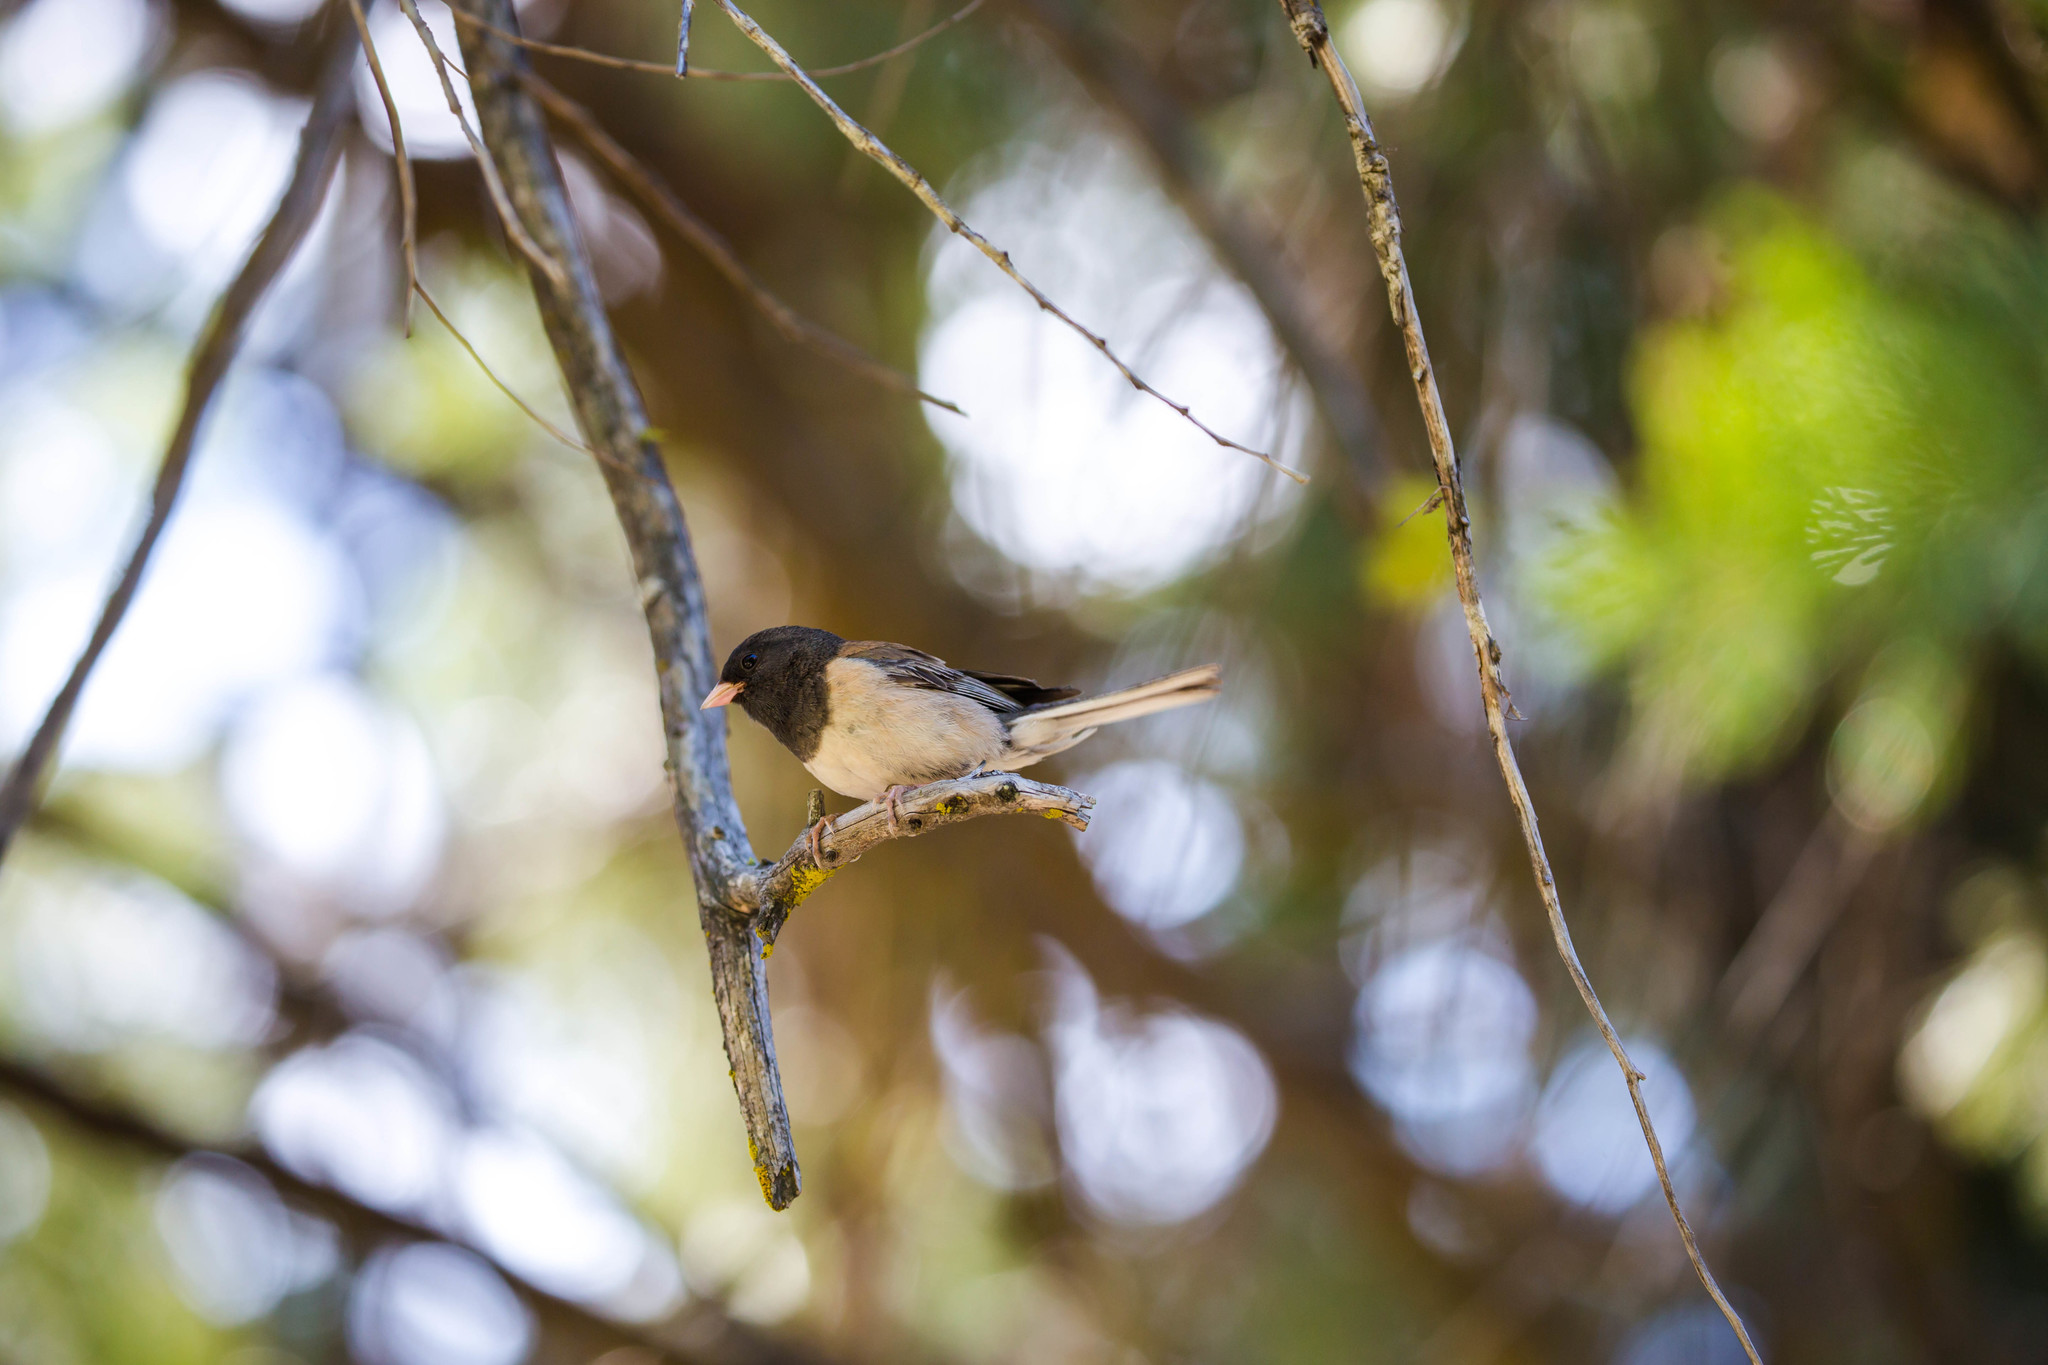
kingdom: Animalia
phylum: Chordata
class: Aves
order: Passeriformes
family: Passerellidae
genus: Junco
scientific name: Junco hyemalis
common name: Dark-eyed junco
